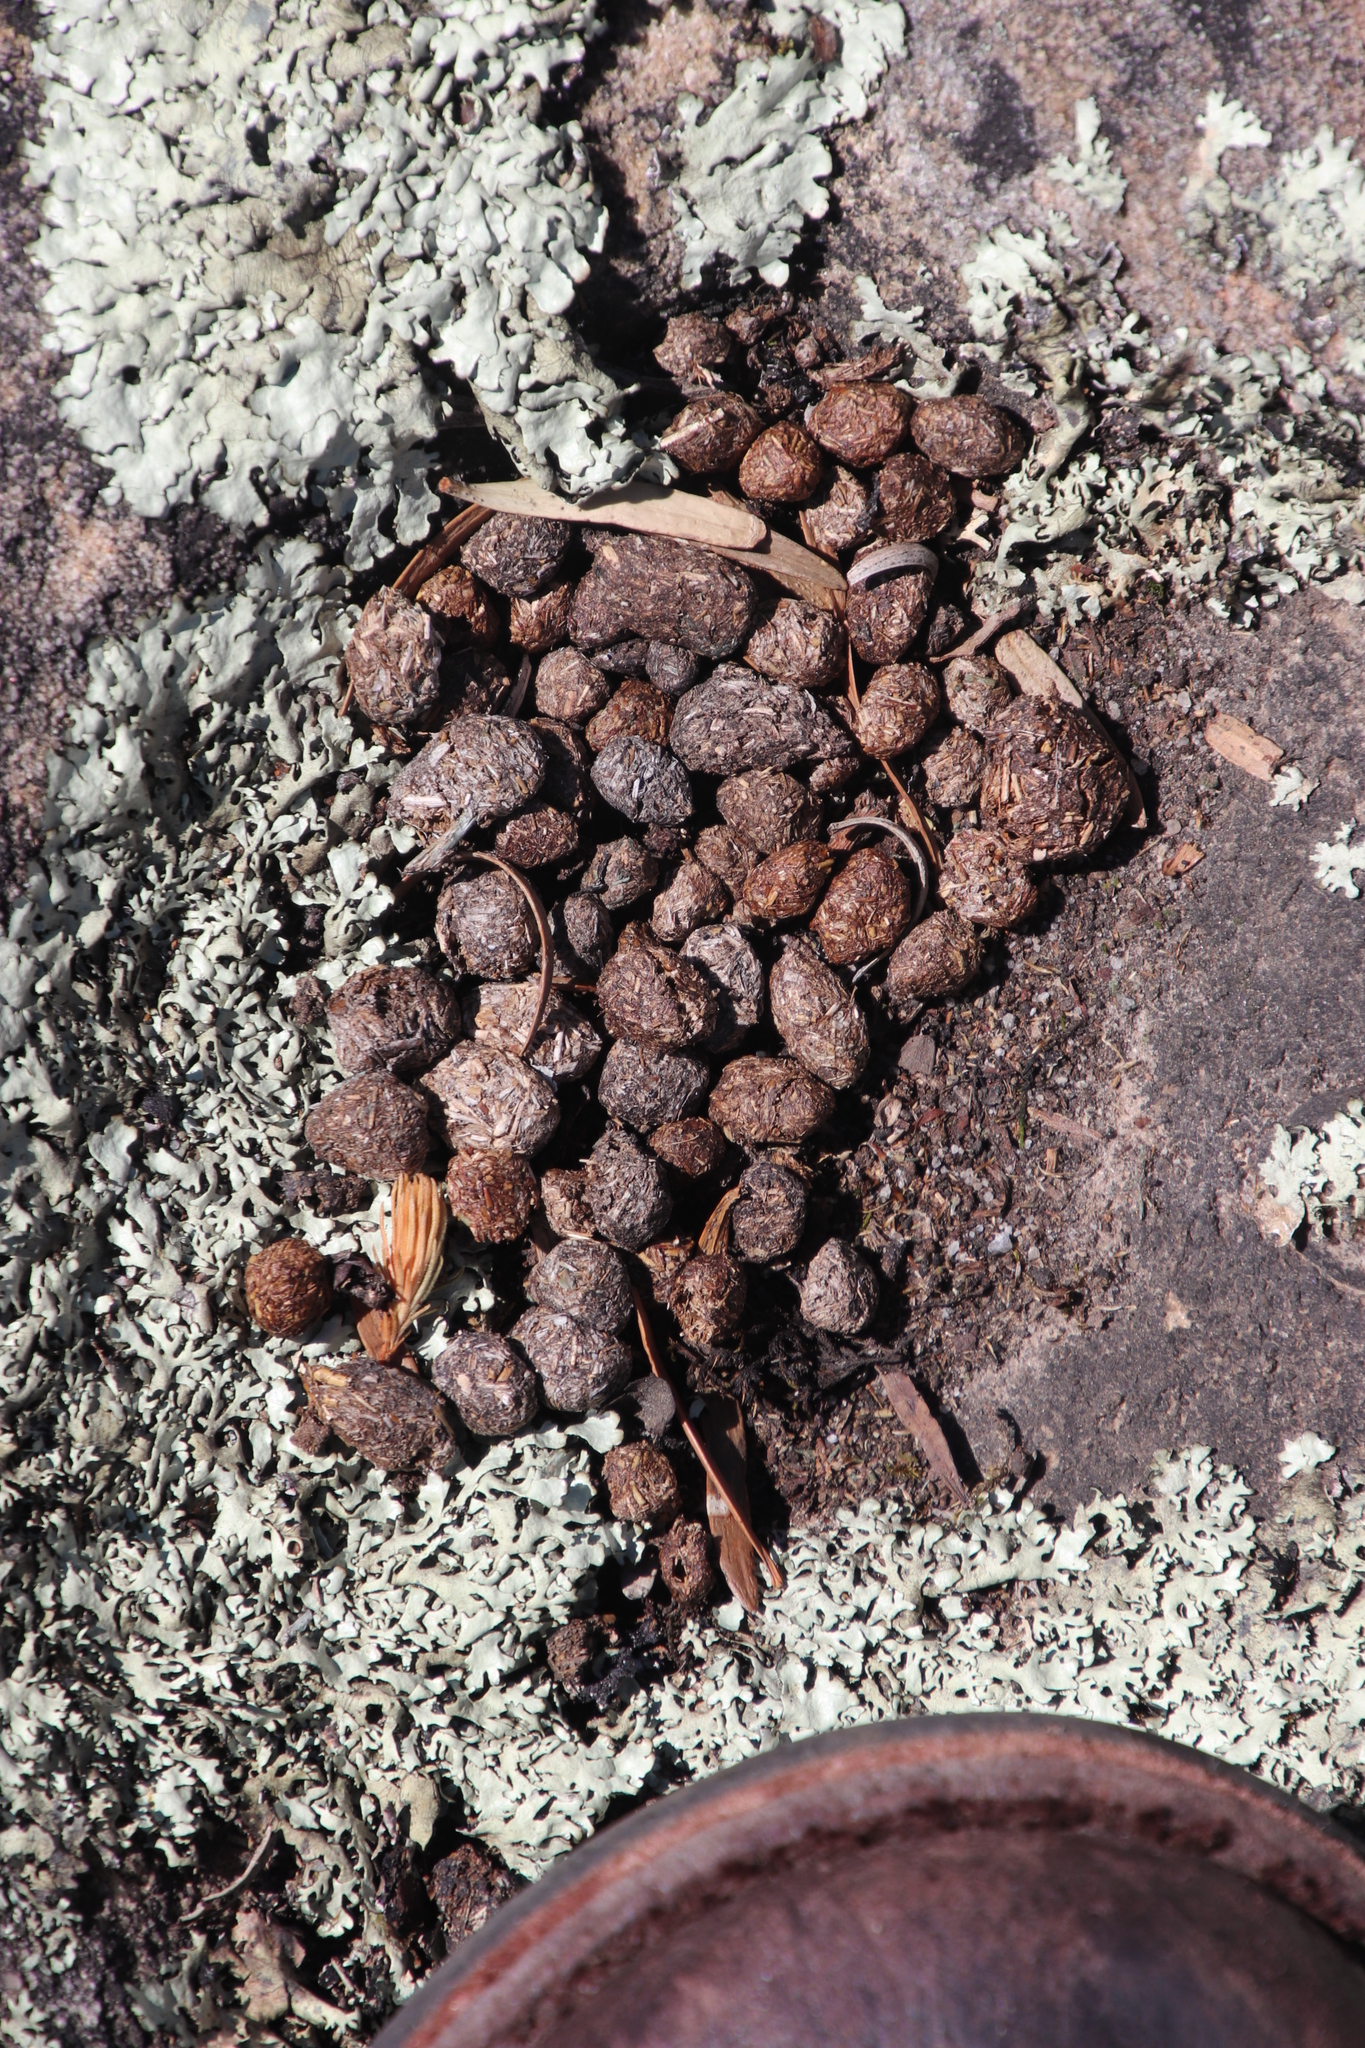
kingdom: Animalia
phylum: Chordata
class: Mammalia
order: Hyracoidea
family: Procaviidae
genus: Procavia
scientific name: Procavia capensis
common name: Rock hyrax
